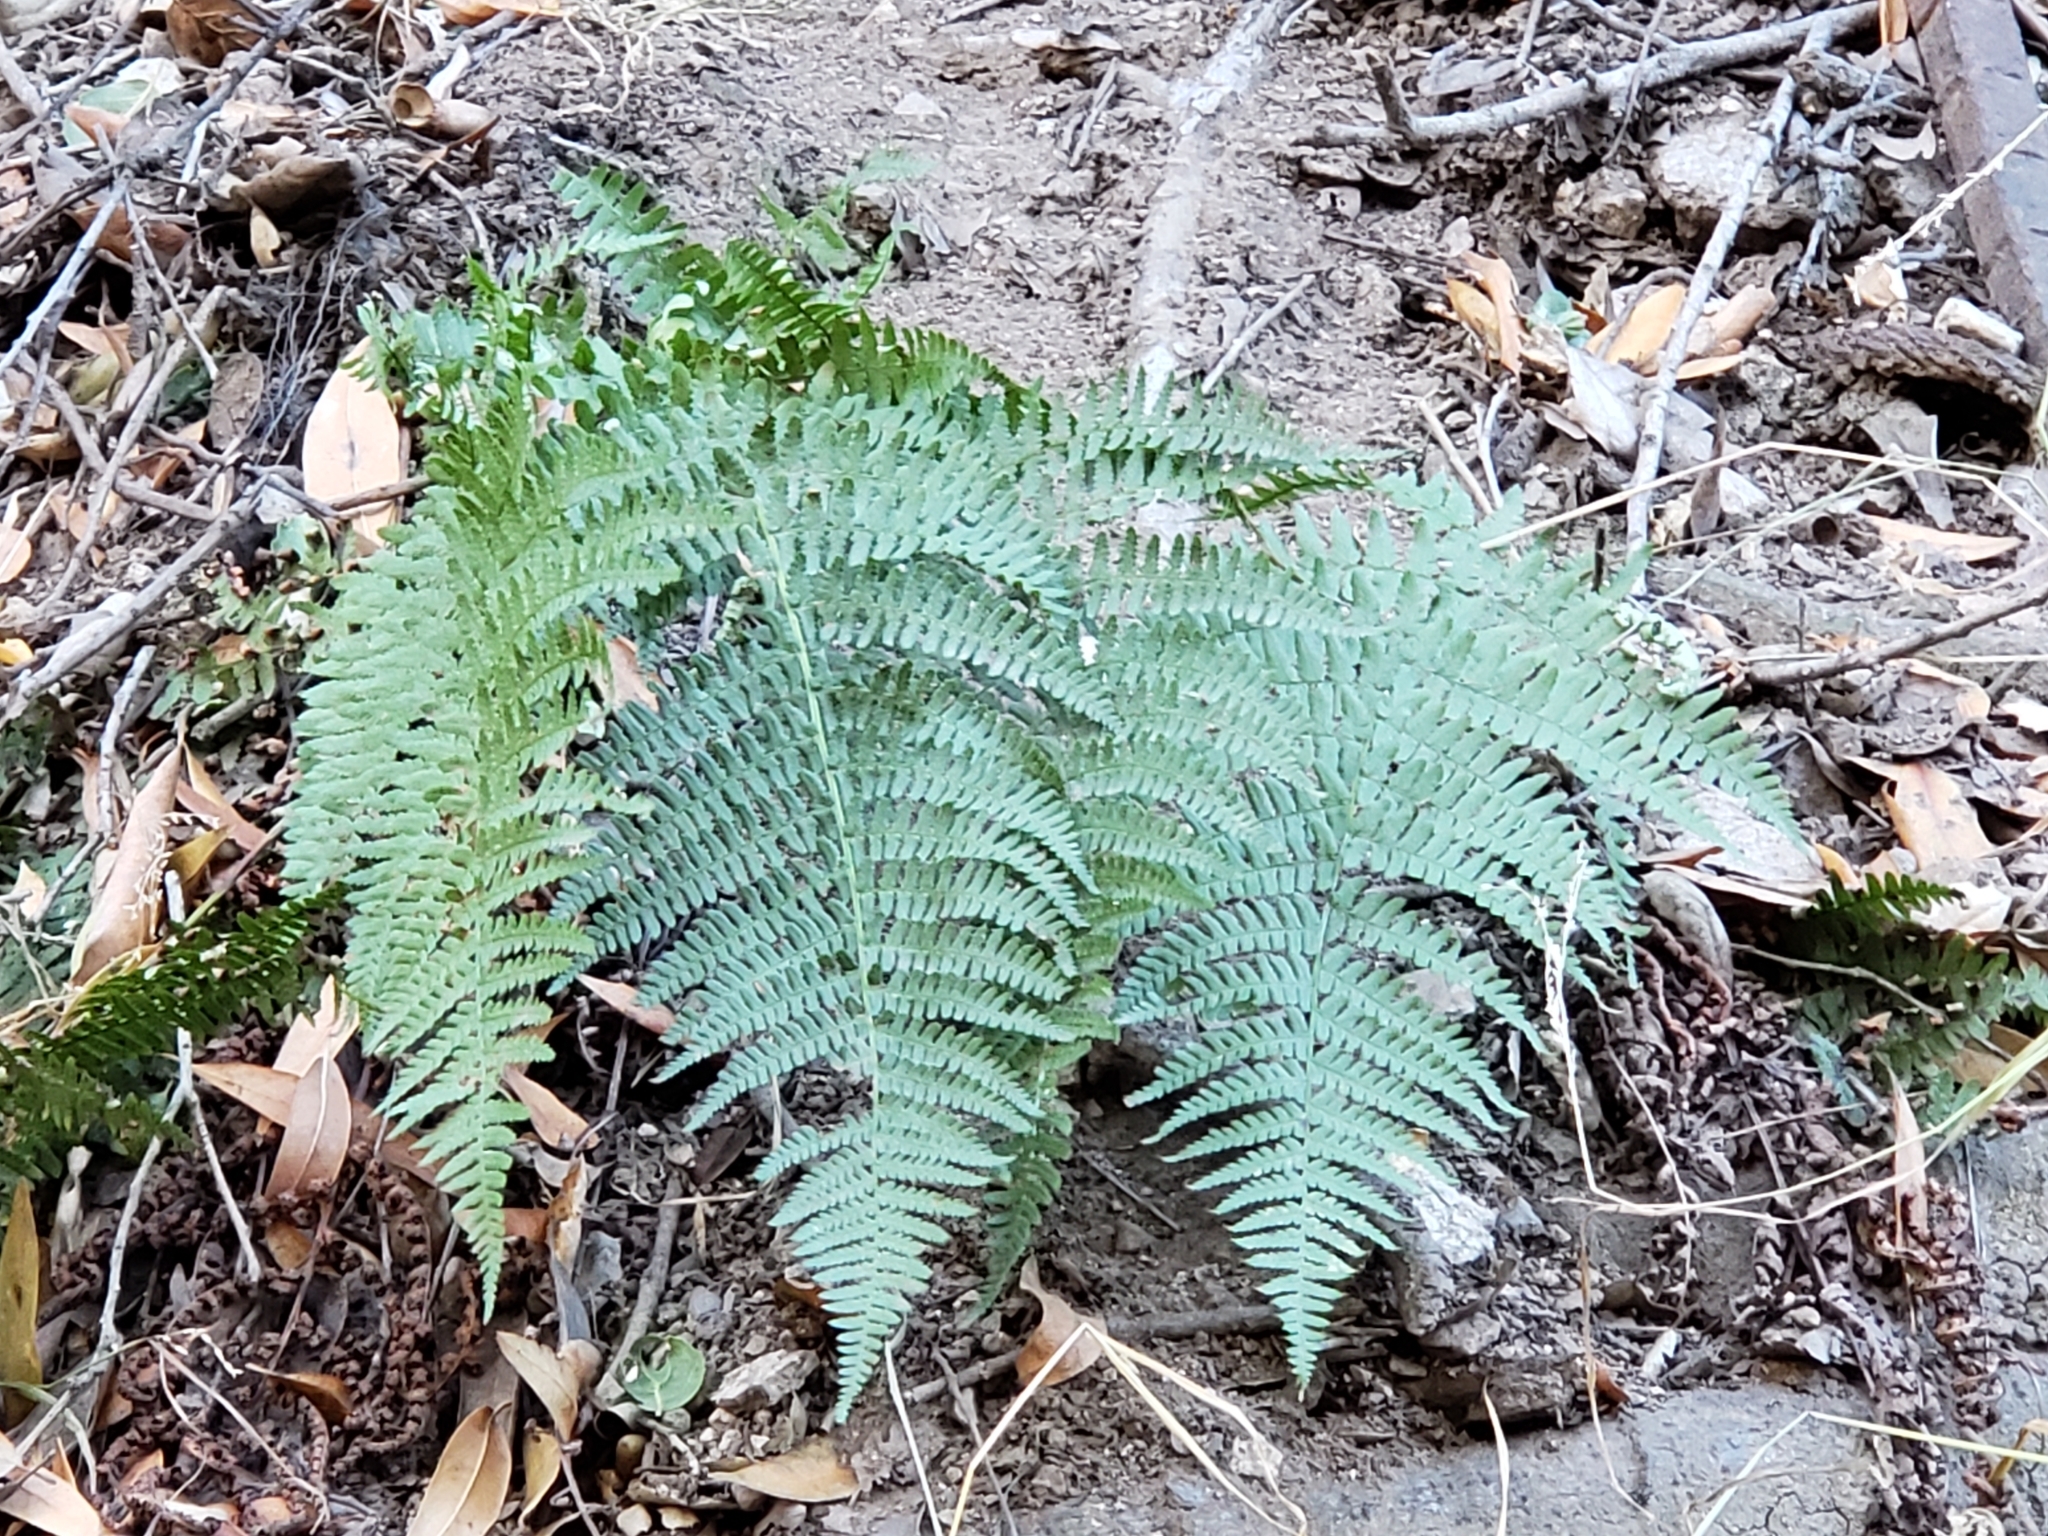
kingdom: Plantae
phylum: Tracheophyta
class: Polypodiopsida
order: Polypodiales
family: Dryopteridaceae
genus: Dryopteris
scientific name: Dryopteris arguta
